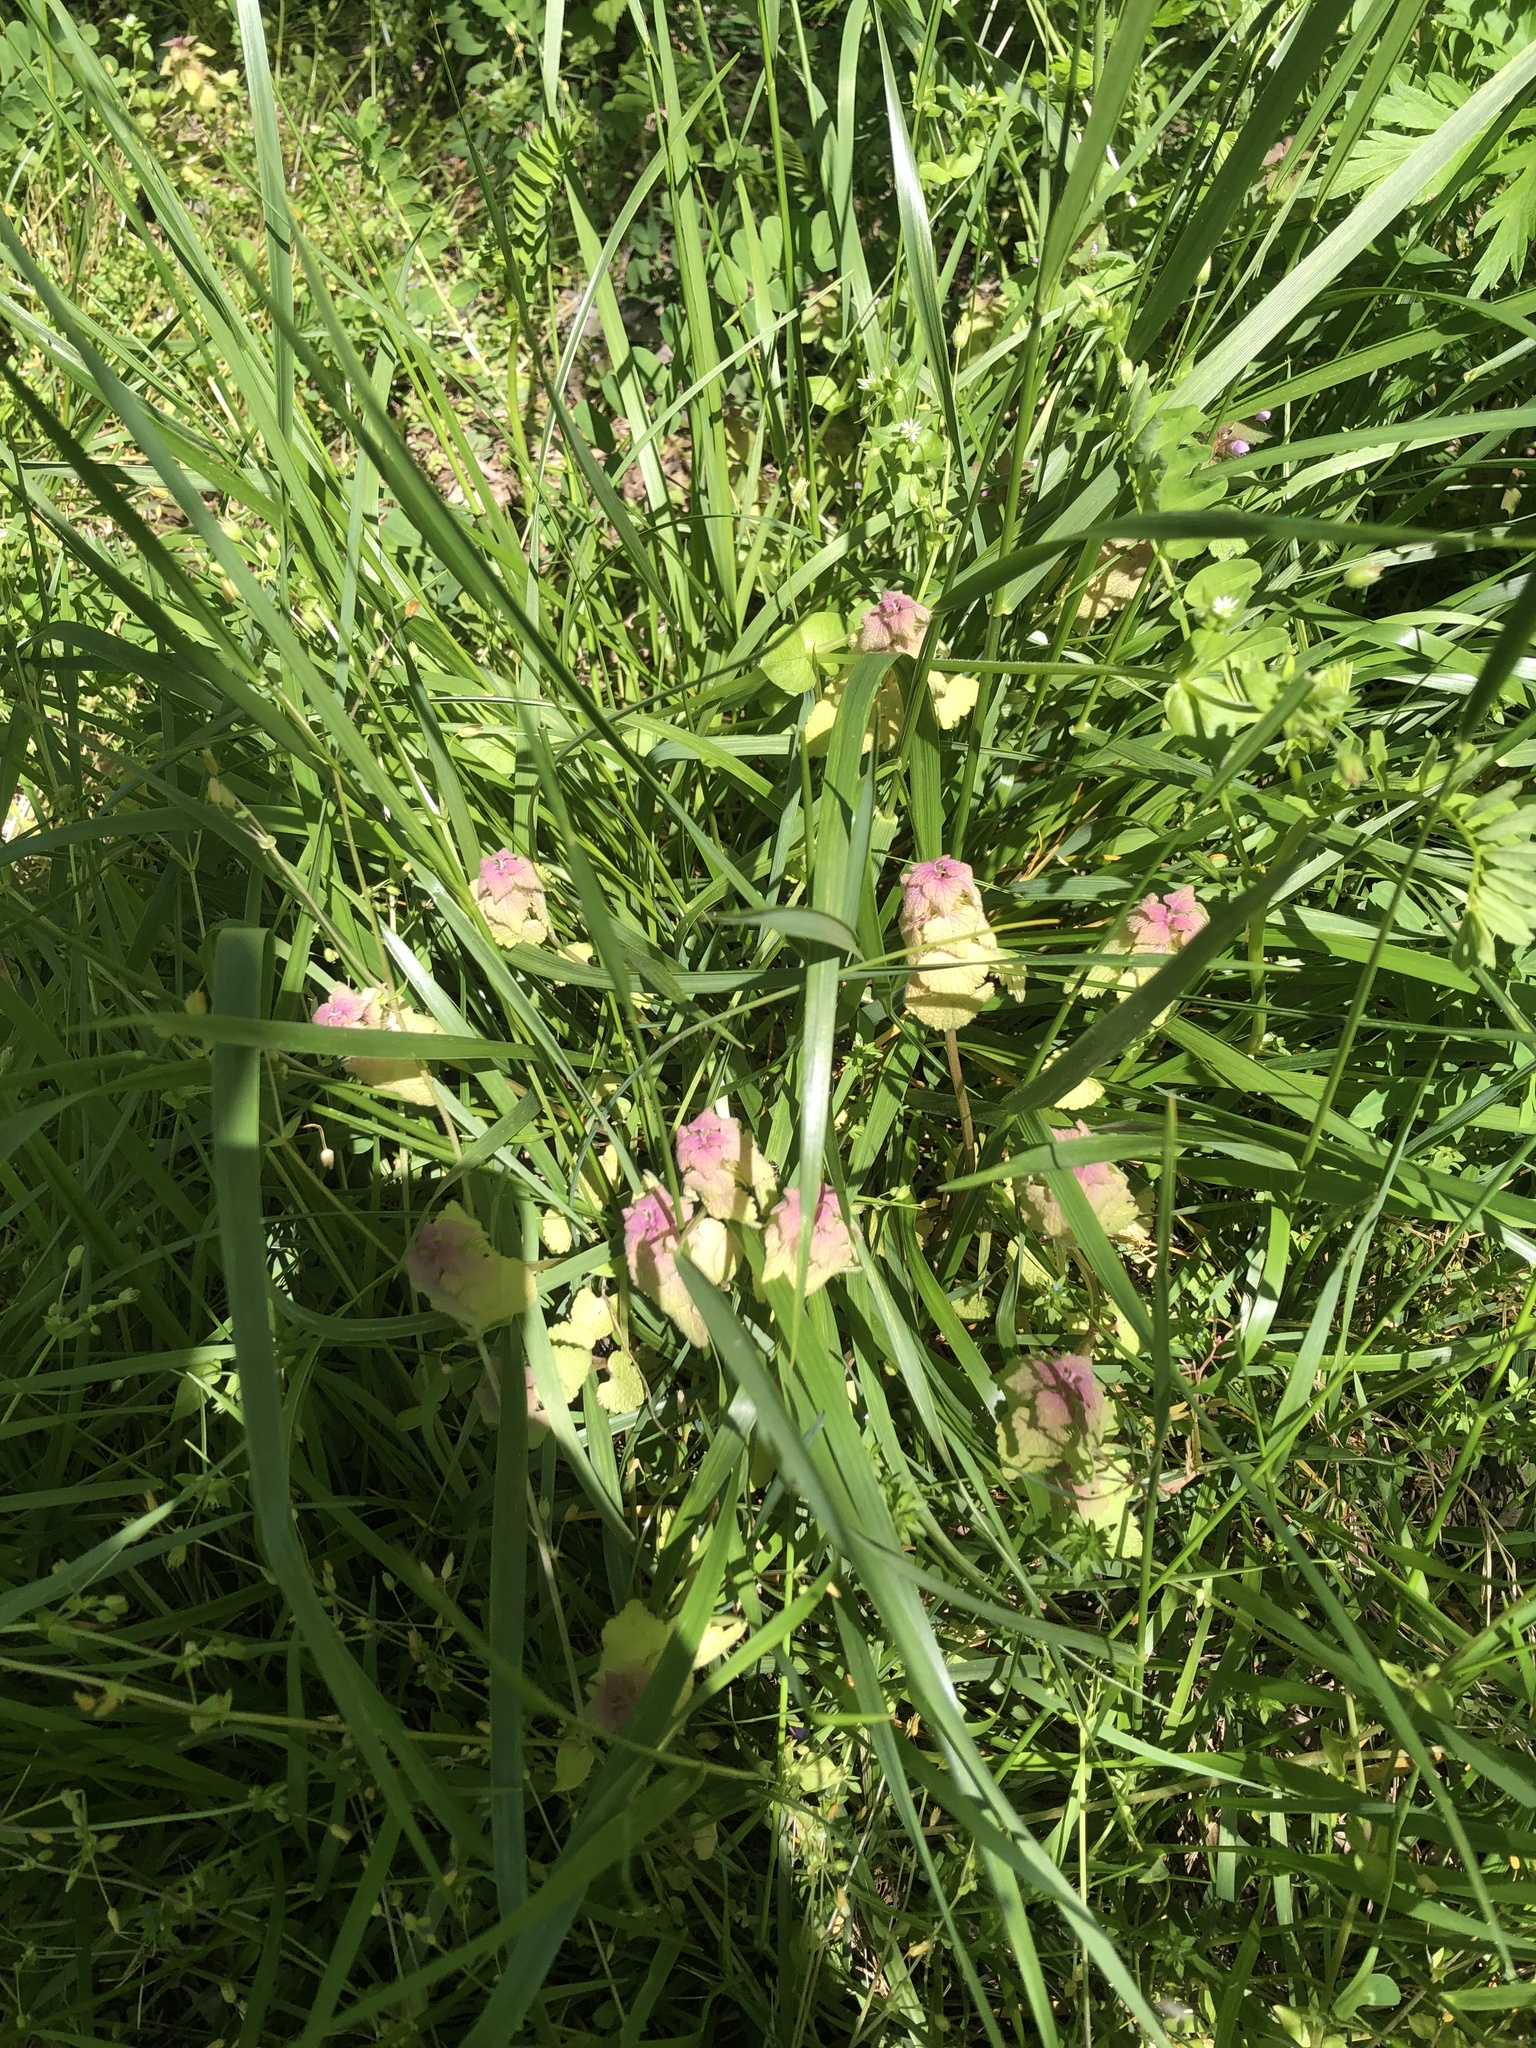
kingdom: Plantae
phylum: Tracheophyta
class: Magnoliopsida
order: Lamiales
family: Lamiaceae
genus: Lamium
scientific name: Lamium purpureum
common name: Red dead-nettle
